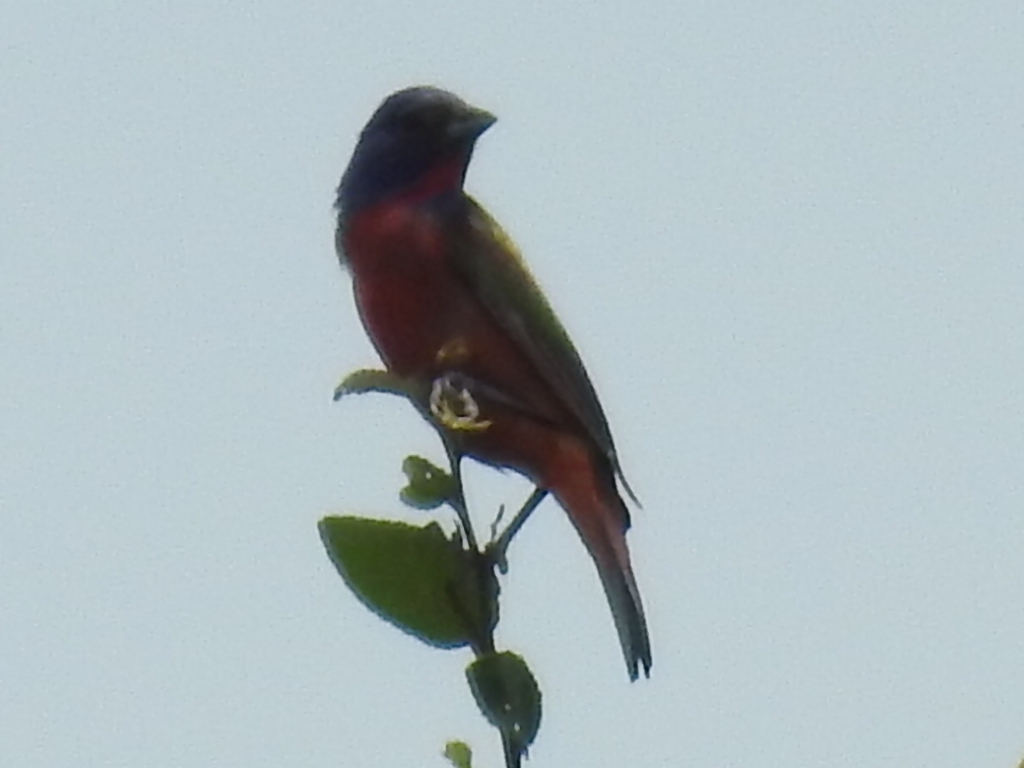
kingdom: Animalia
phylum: Chordata
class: Aves
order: Passeriformes
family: Cardinalidae
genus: Passerina
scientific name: Passerina ciris
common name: Painted bunting
